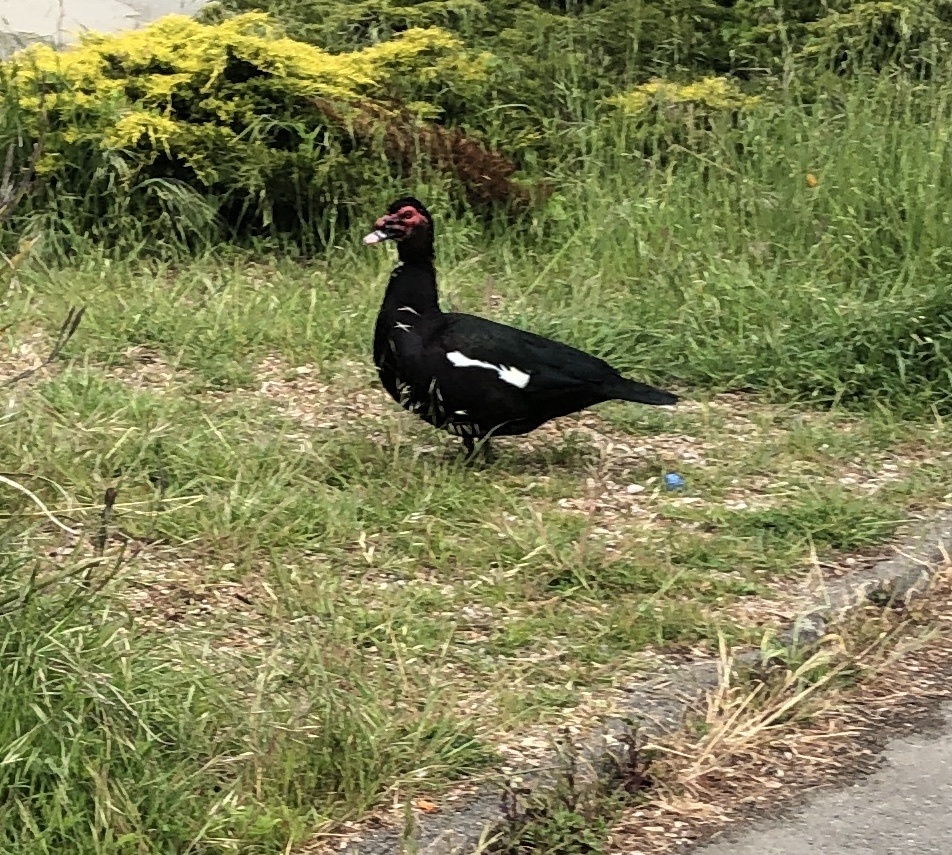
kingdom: Animalia
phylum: Chordata
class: Aves
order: Anseriformes
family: Anatidae
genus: Cairina
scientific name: Cairina moschata
